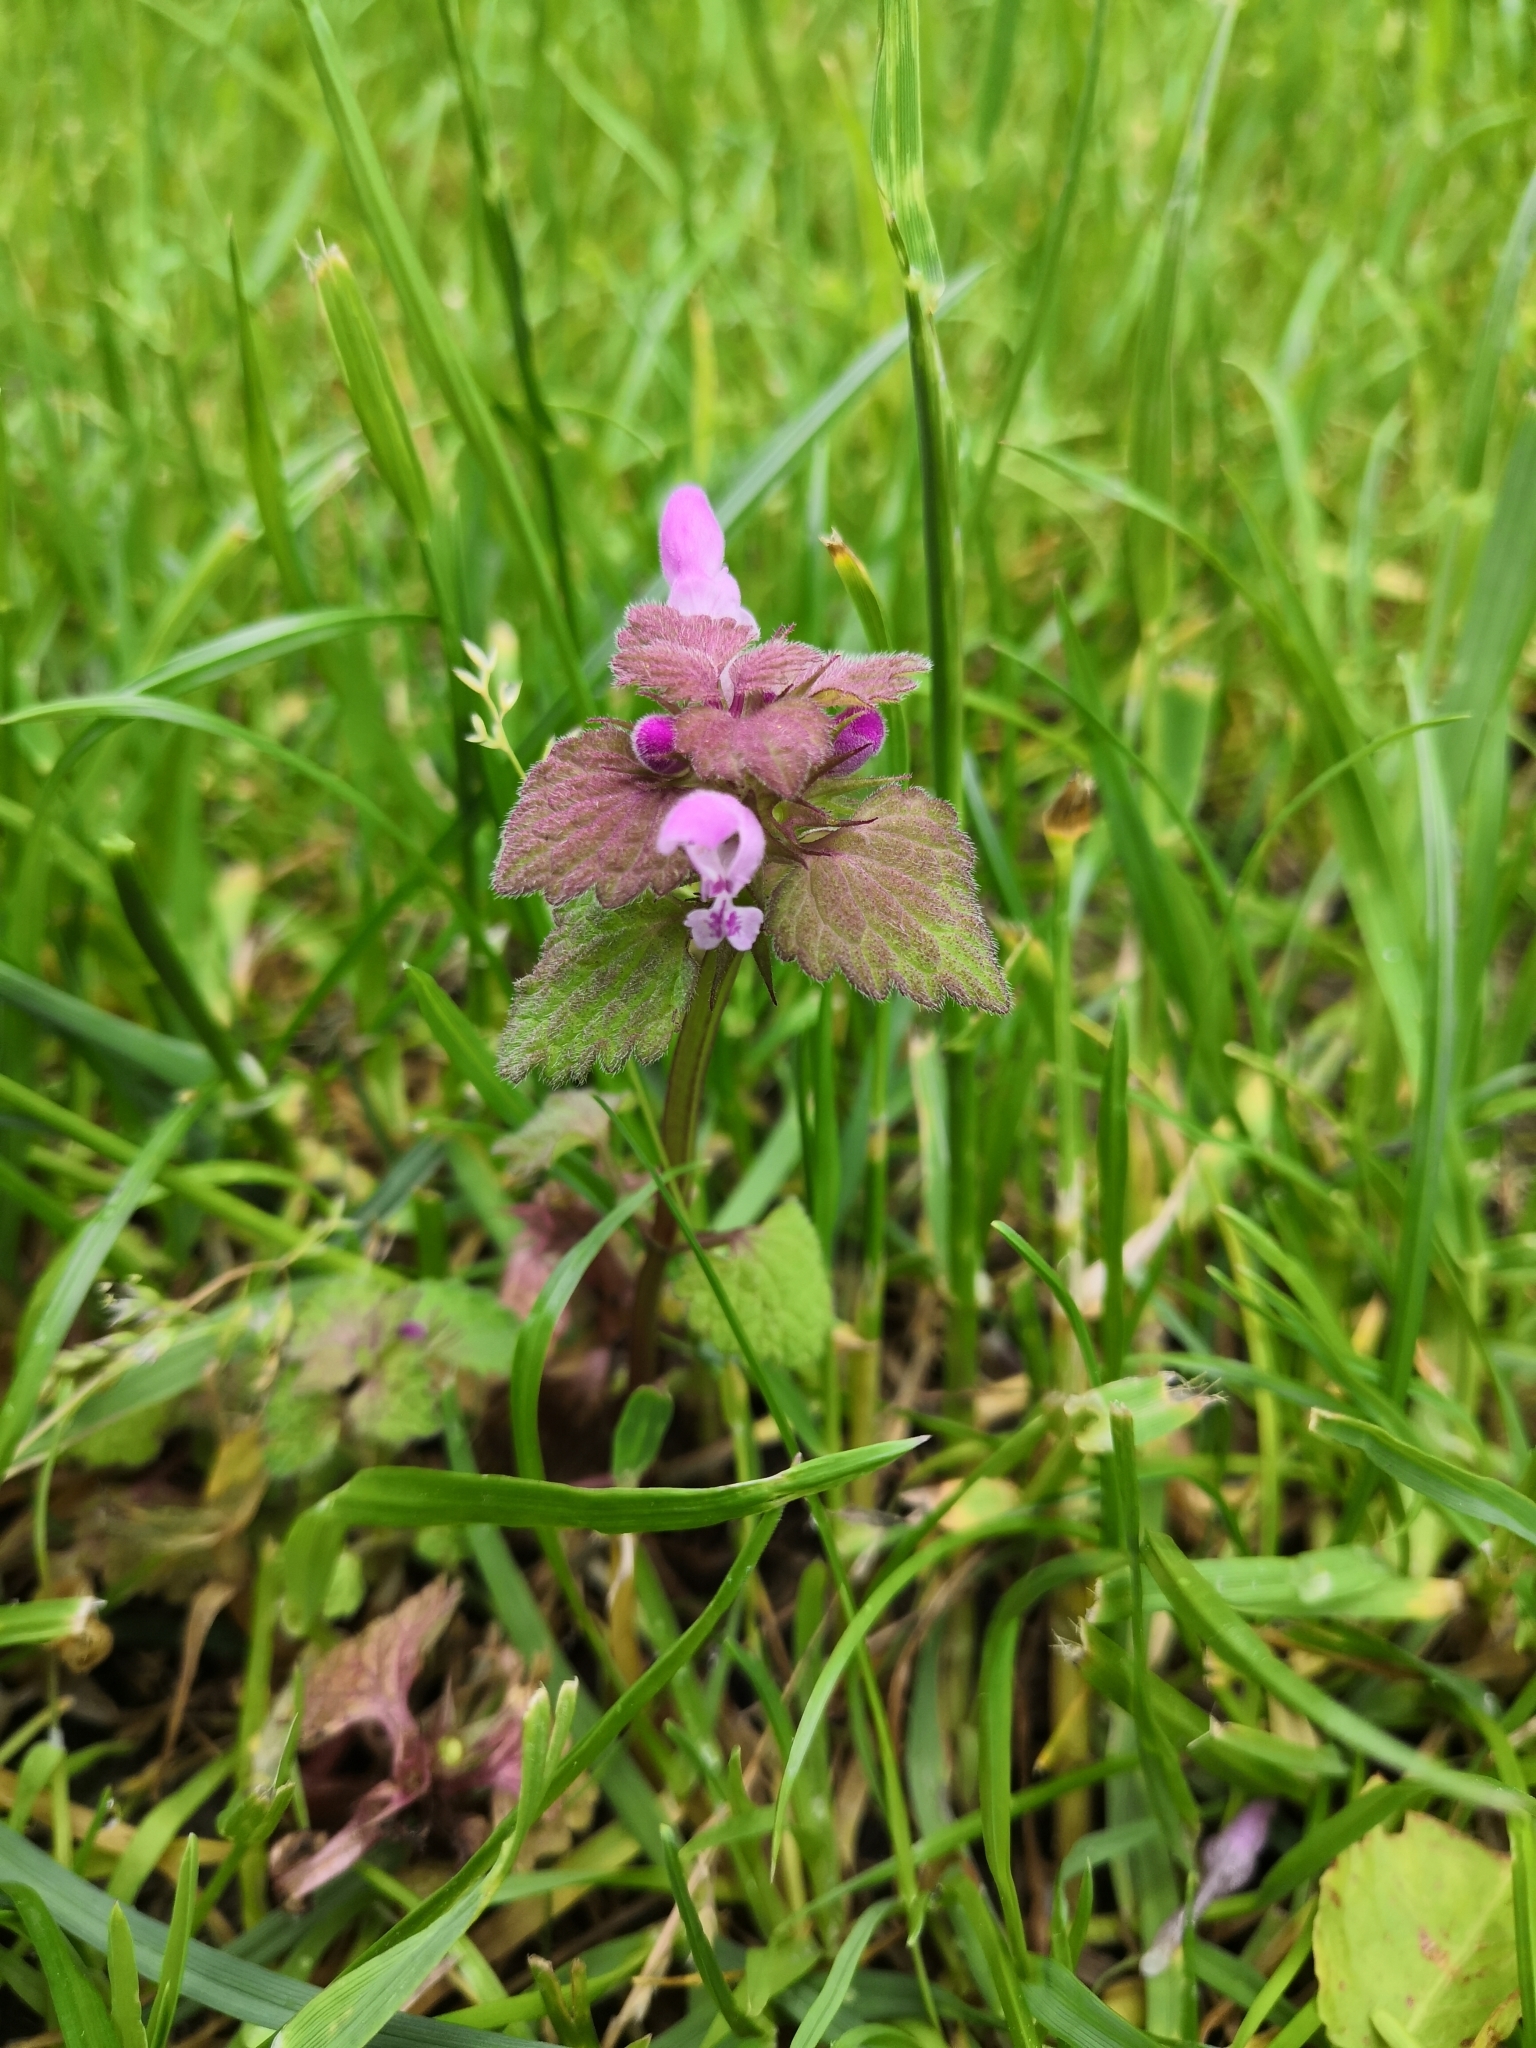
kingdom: Plantae
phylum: Tracheophyta
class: Magnoliopsida
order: Lamiales
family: Lamiaceae
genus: Lamium
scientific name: Lamium purpureum
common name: Red dead-nettle
